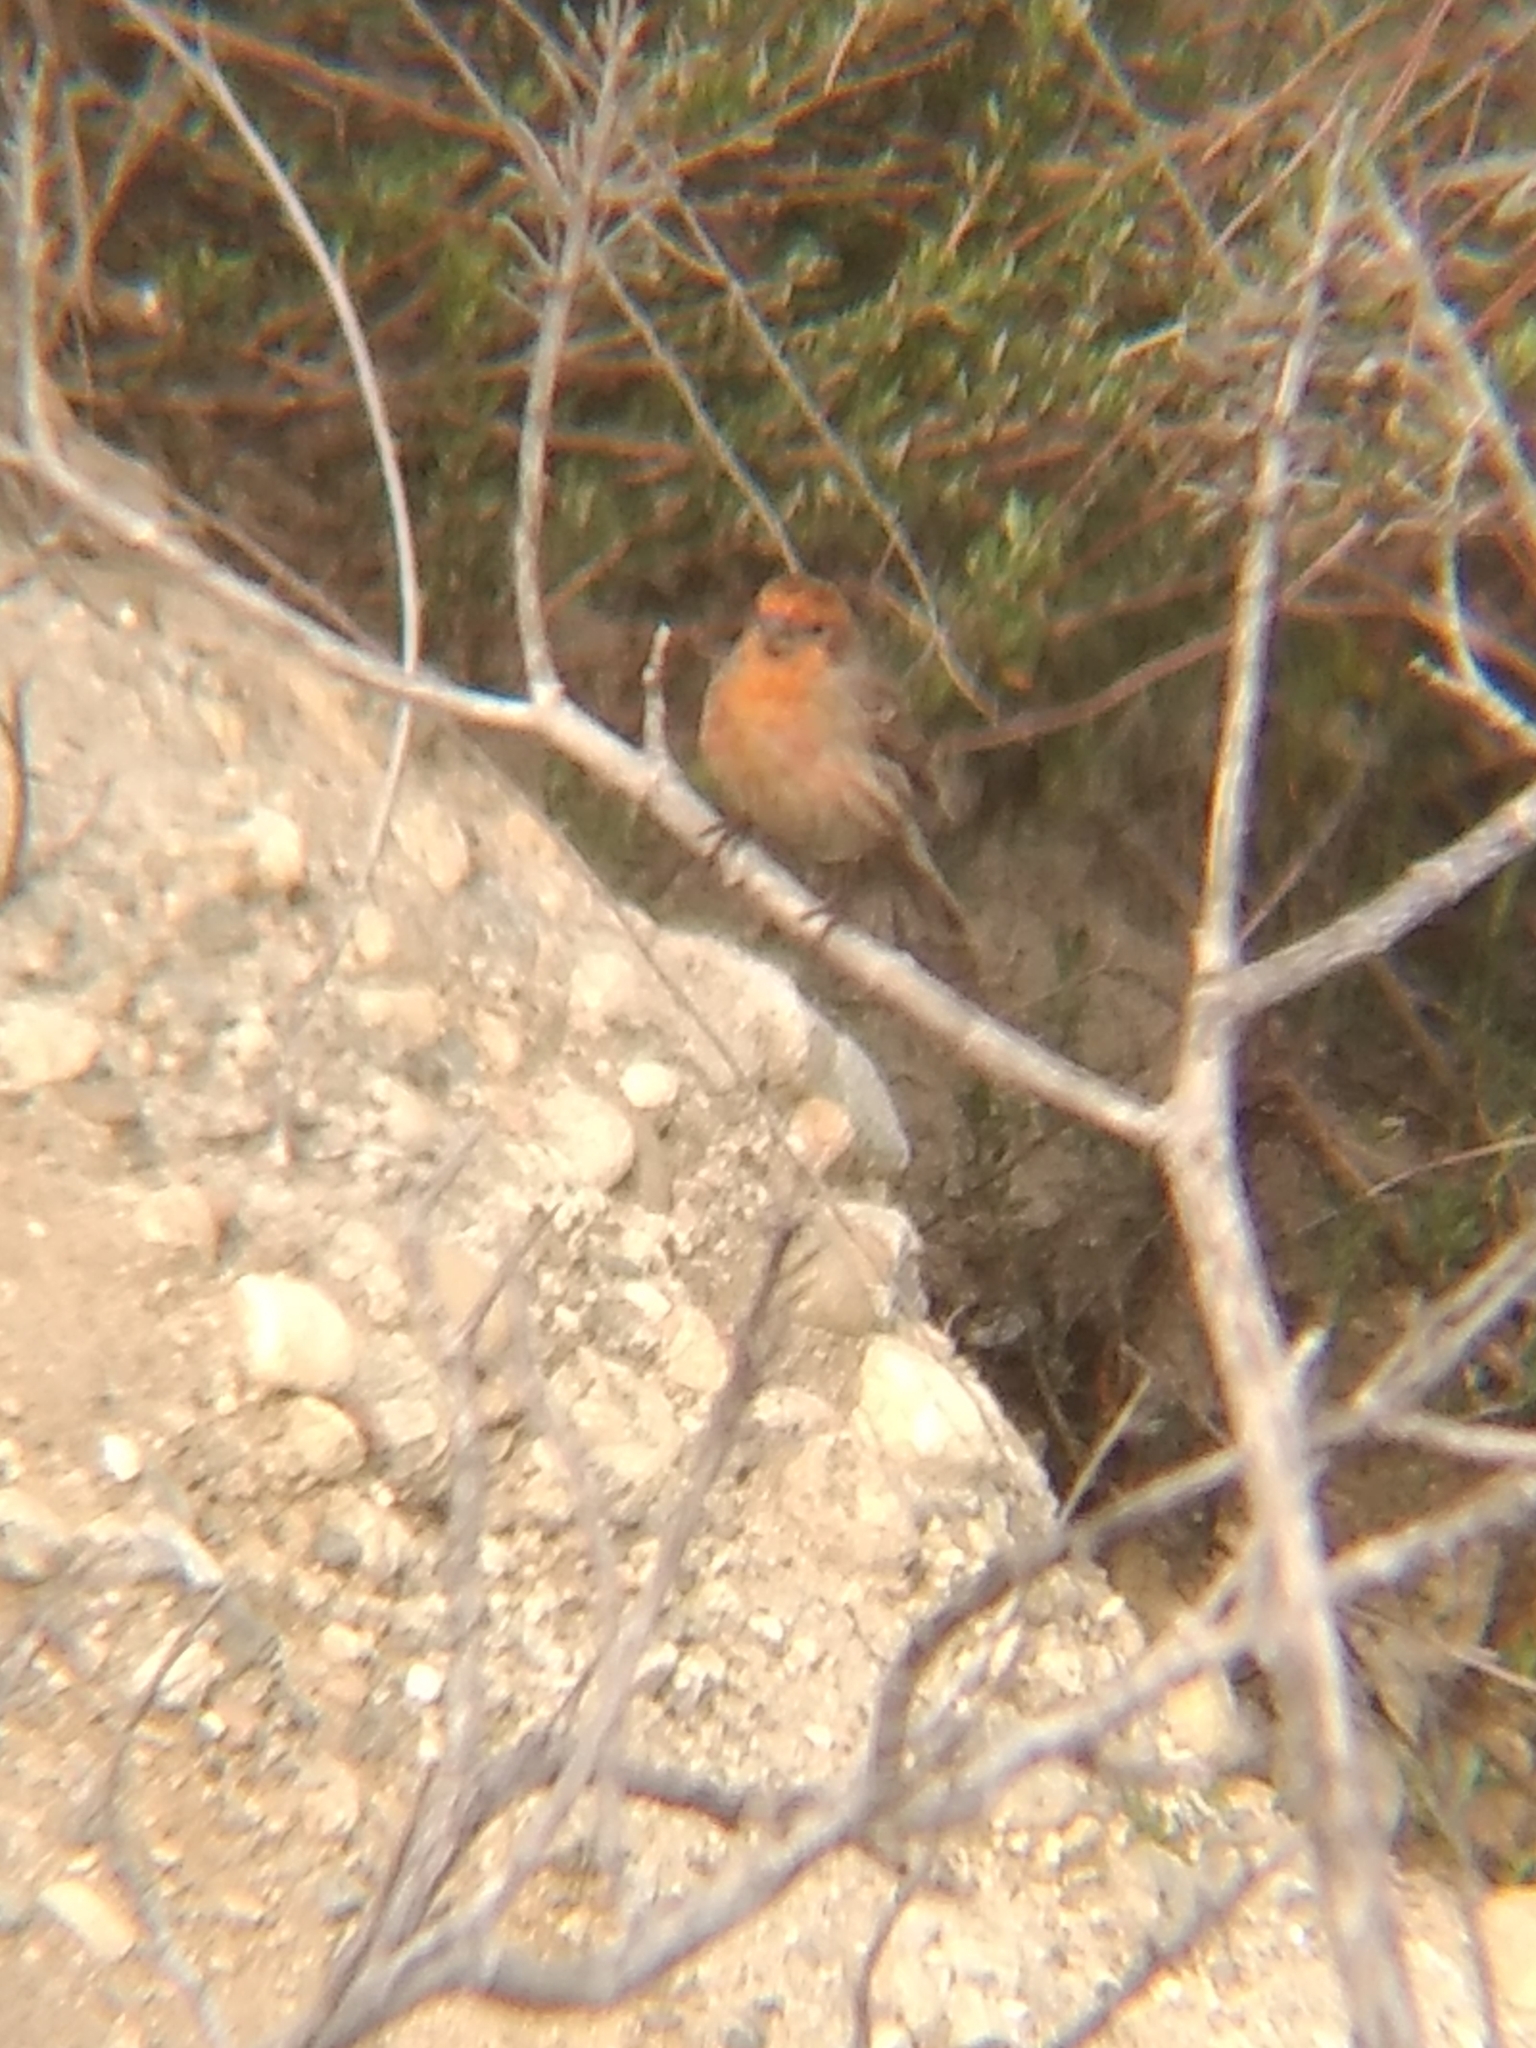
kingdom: Animalia
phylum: Chordata
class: Aves
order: Passeriformes
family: Fringillidae
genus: Haemorhous
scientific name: Haemorhous mexicanus
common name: House finch
